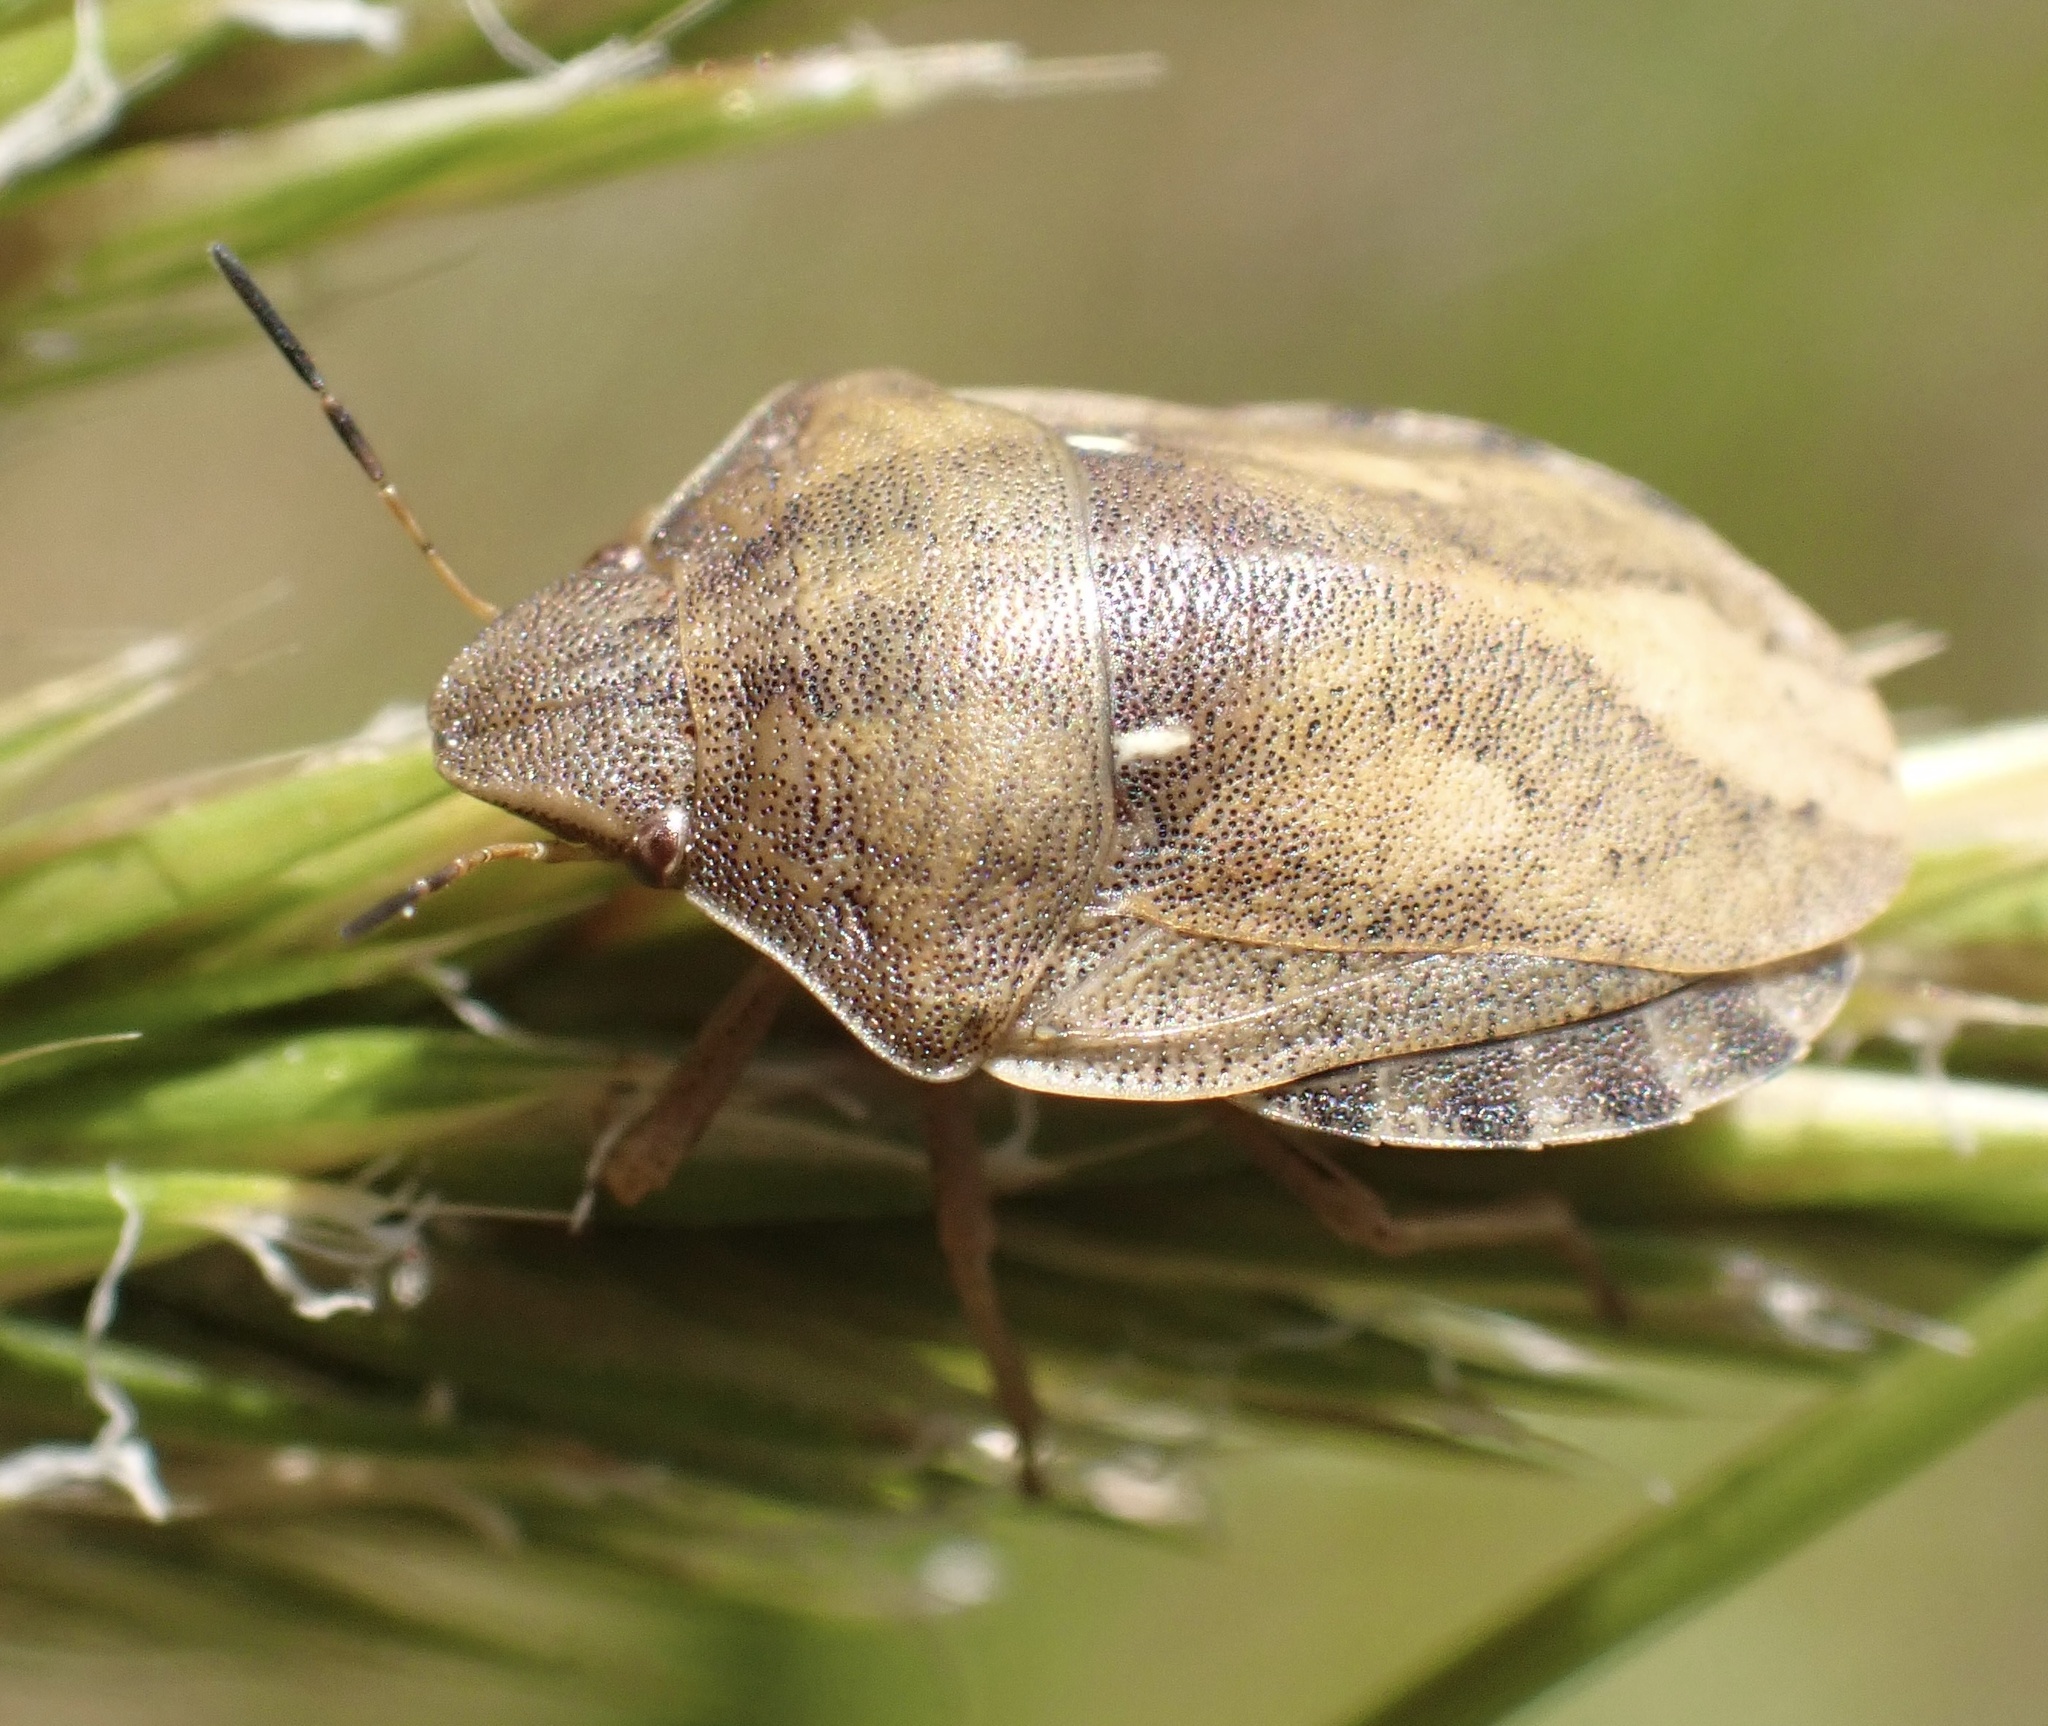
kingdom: Animalia
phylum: Arthropoda
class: Insecta
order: Hemiptera
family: Scutelleridae
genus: Eurygaster
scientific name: Eurygaster testudinaria
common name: Tortoise bug
